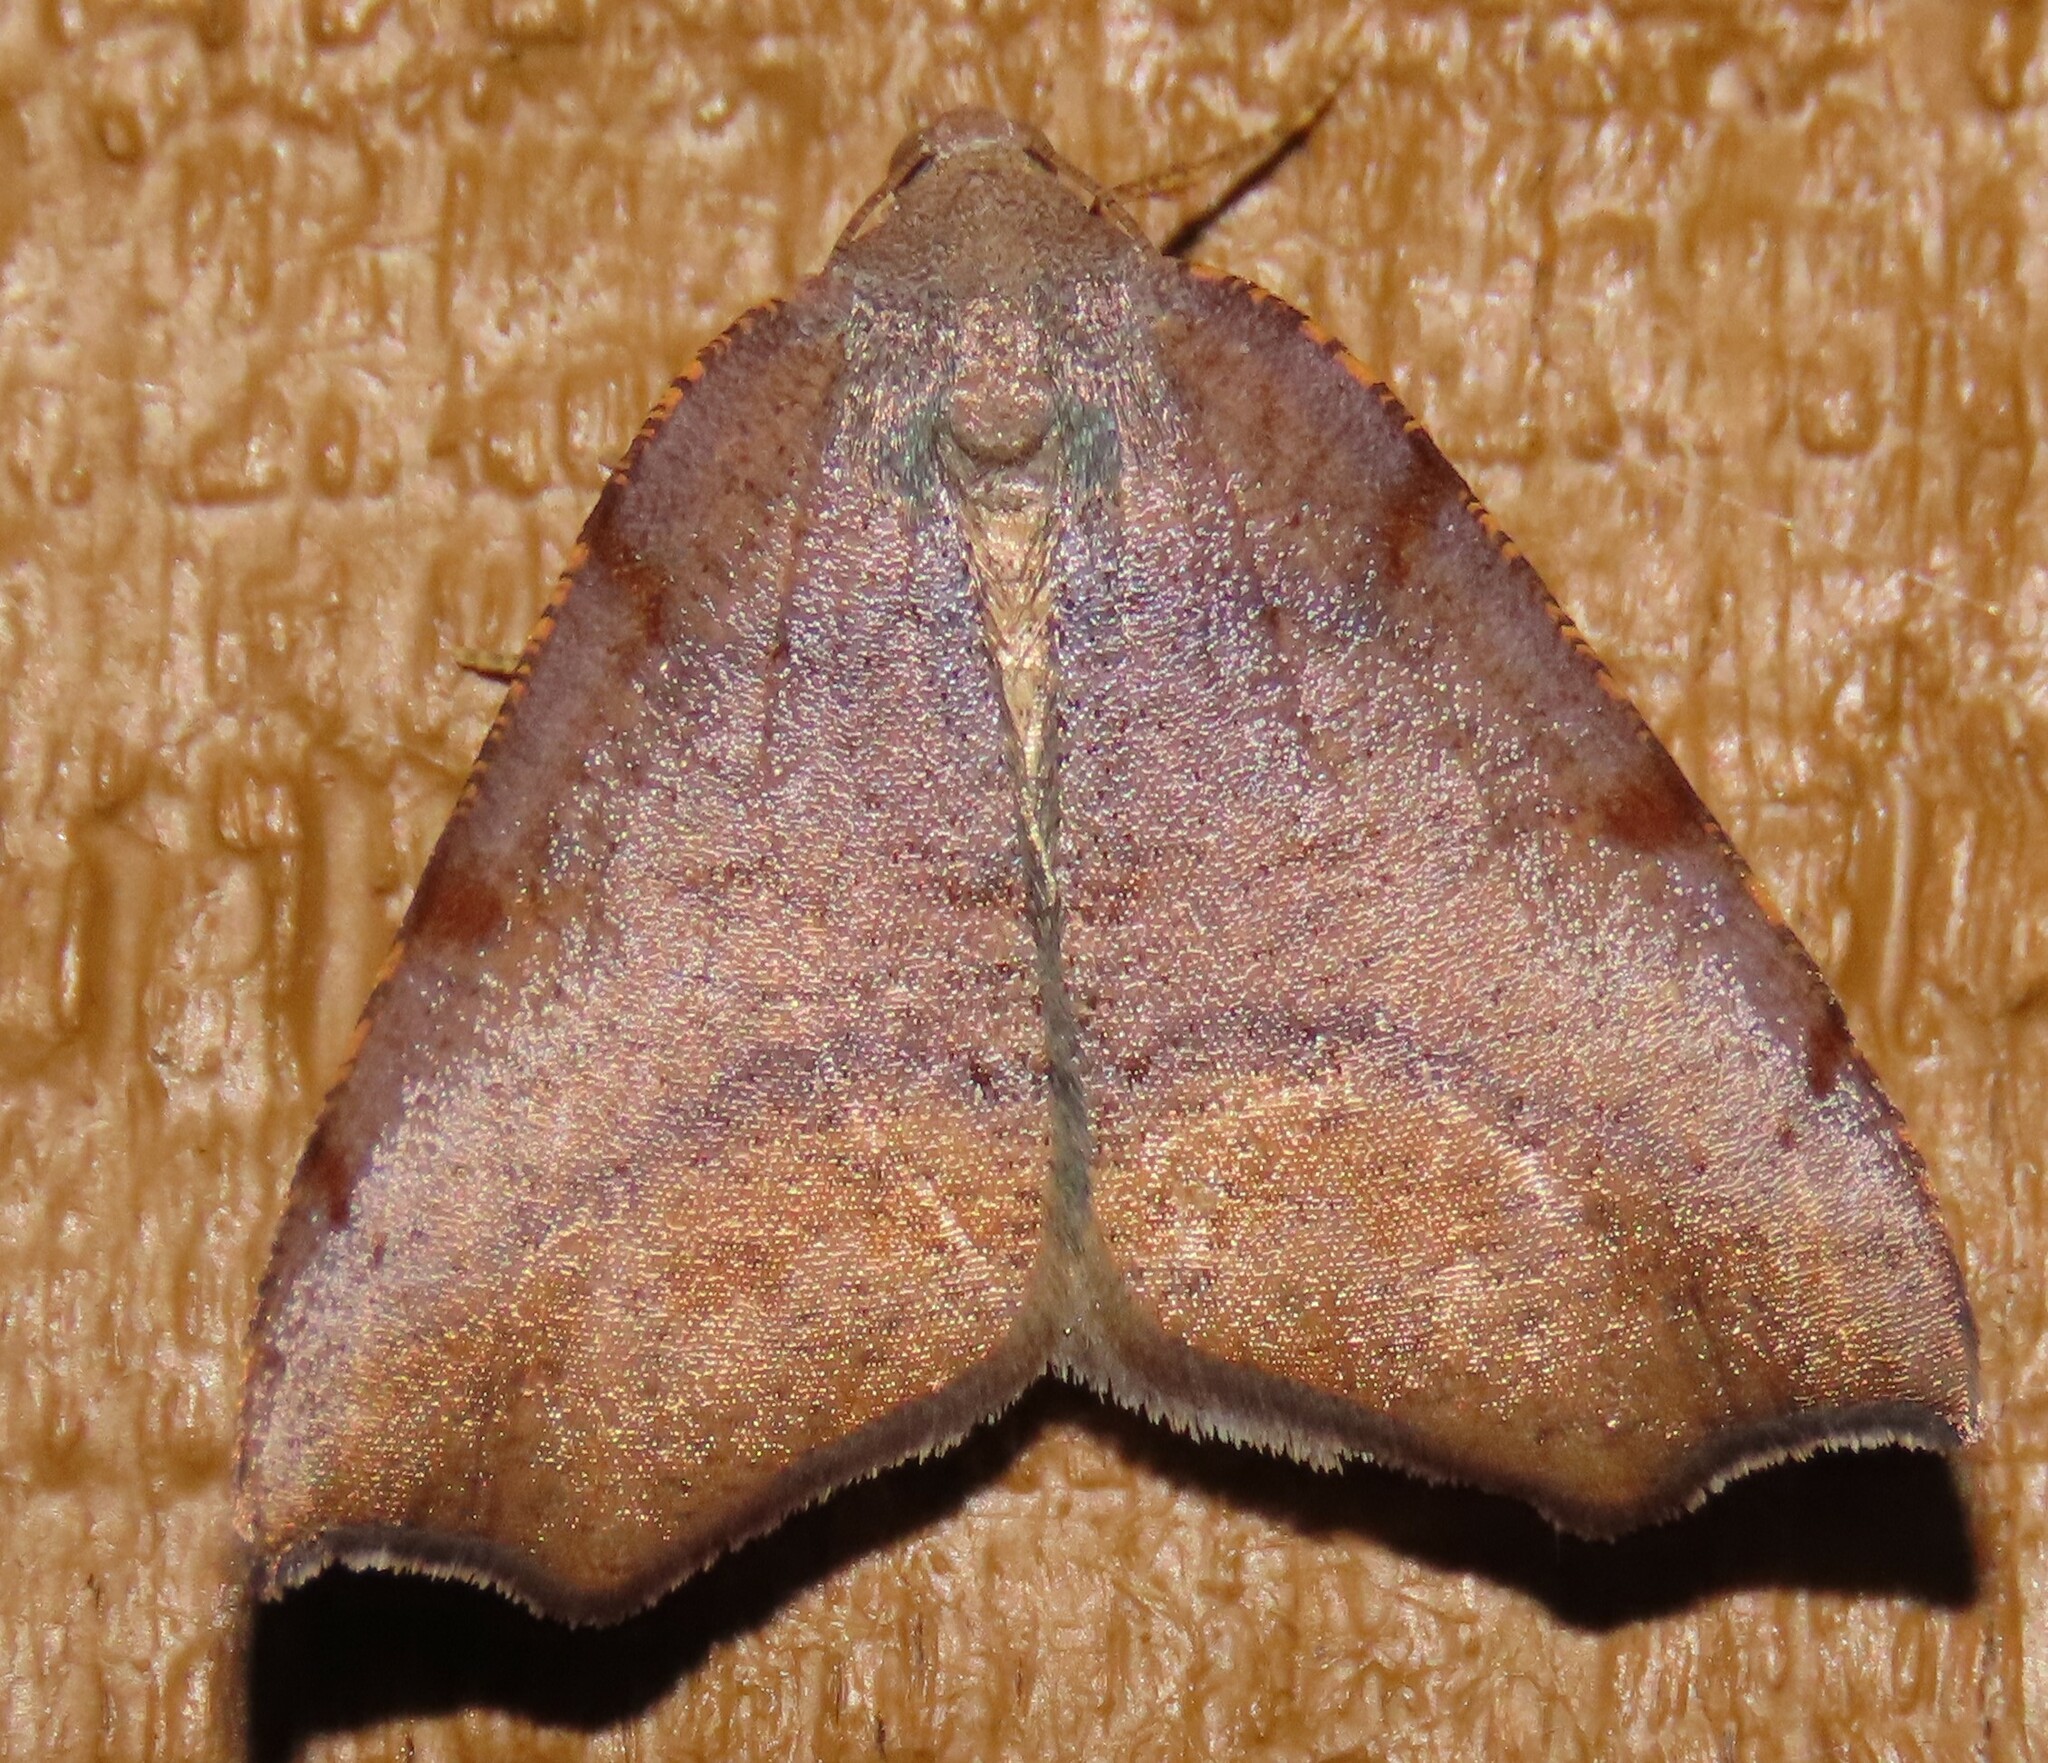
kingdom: Animalia
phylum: Arthropoda
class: Insecta
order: Lepidoptera
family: Geometridae
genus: Sestra
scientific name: Sestra flexata
